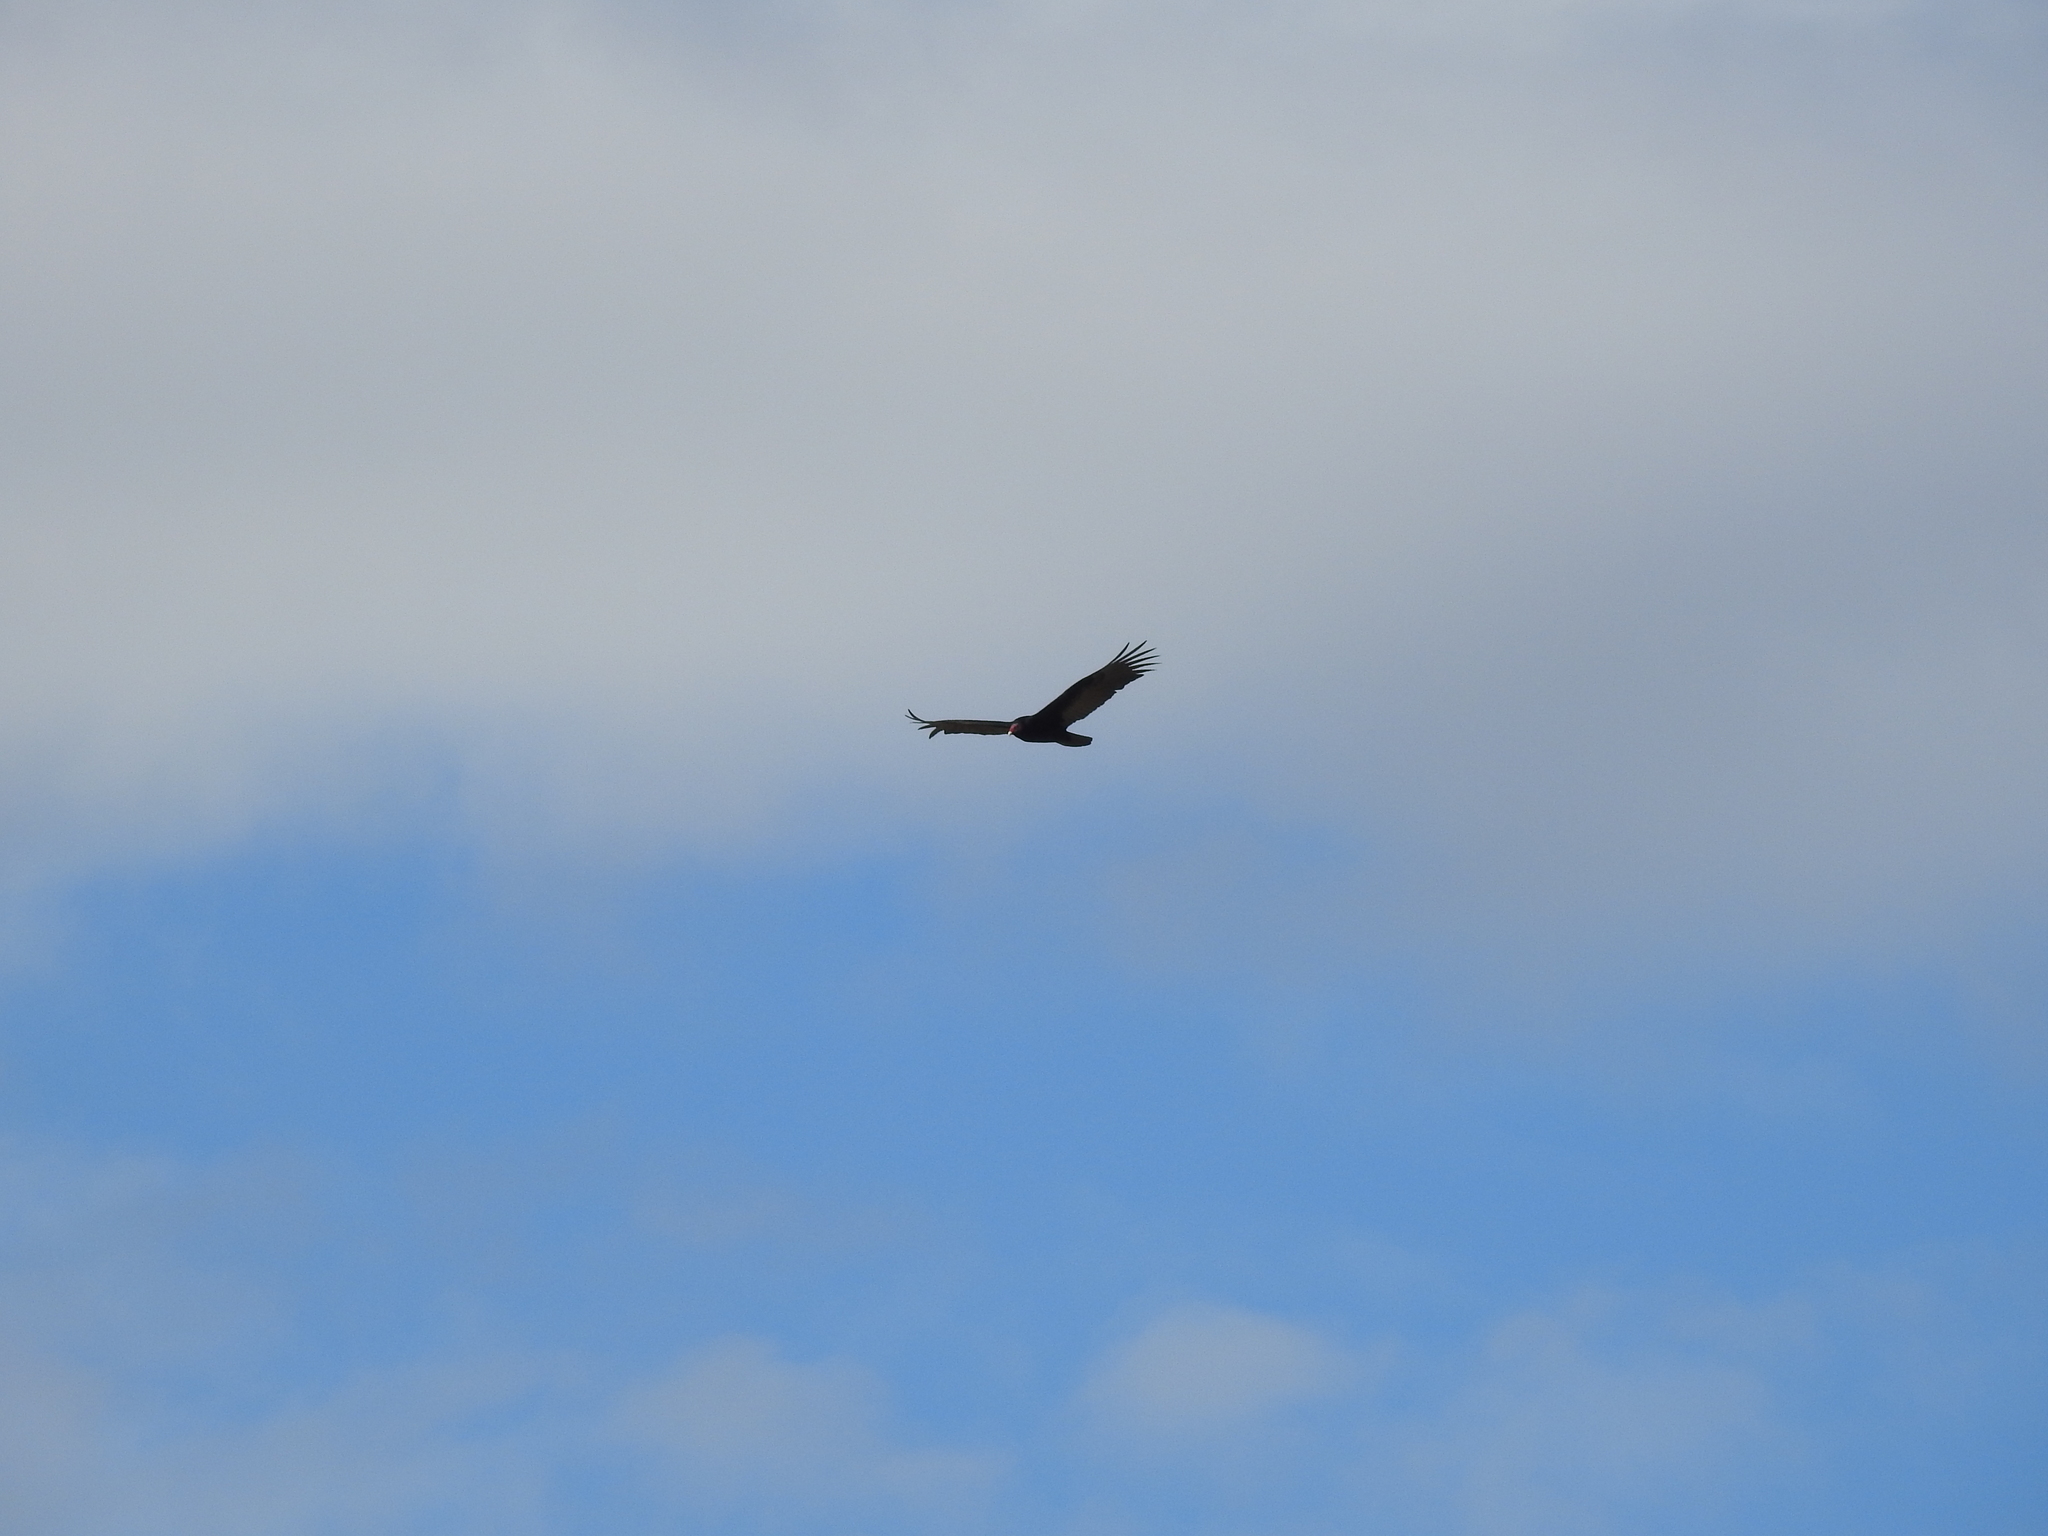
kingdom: Animalia
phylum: Chordata
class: Aves
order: Accipitriformes
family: Cathartidae
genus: Cathartes
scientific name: Cathartes aura
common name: Turkey vulture
